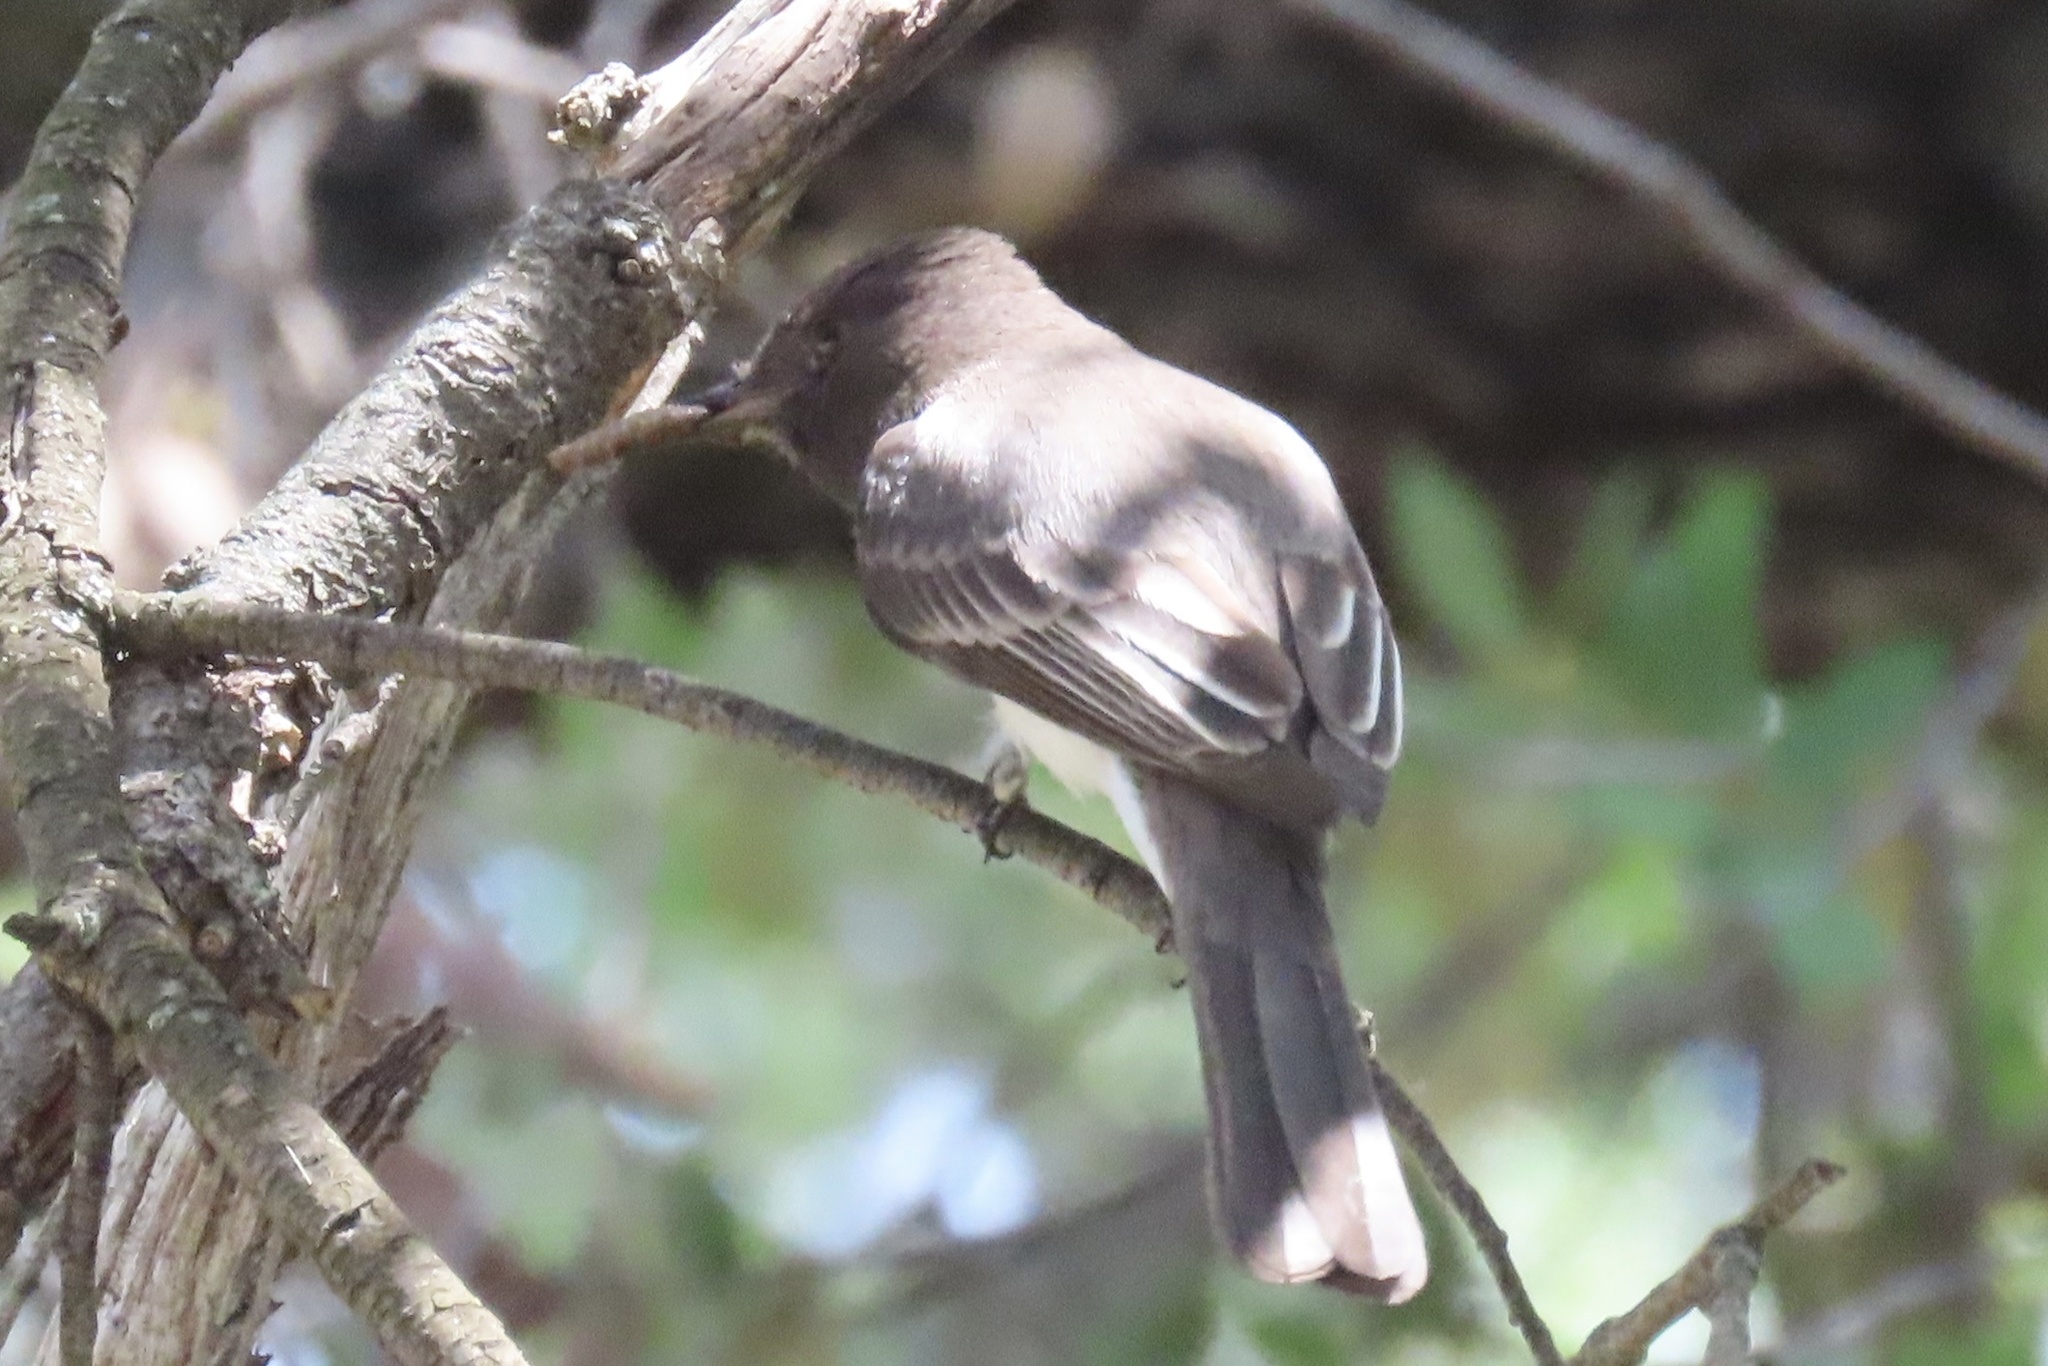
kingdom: Animalia
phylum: Chordata
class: Aves
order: Passeriformes
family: Tyrannidae
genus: Sayornis
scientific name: Sayornis nigricans
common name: Black phoebe
